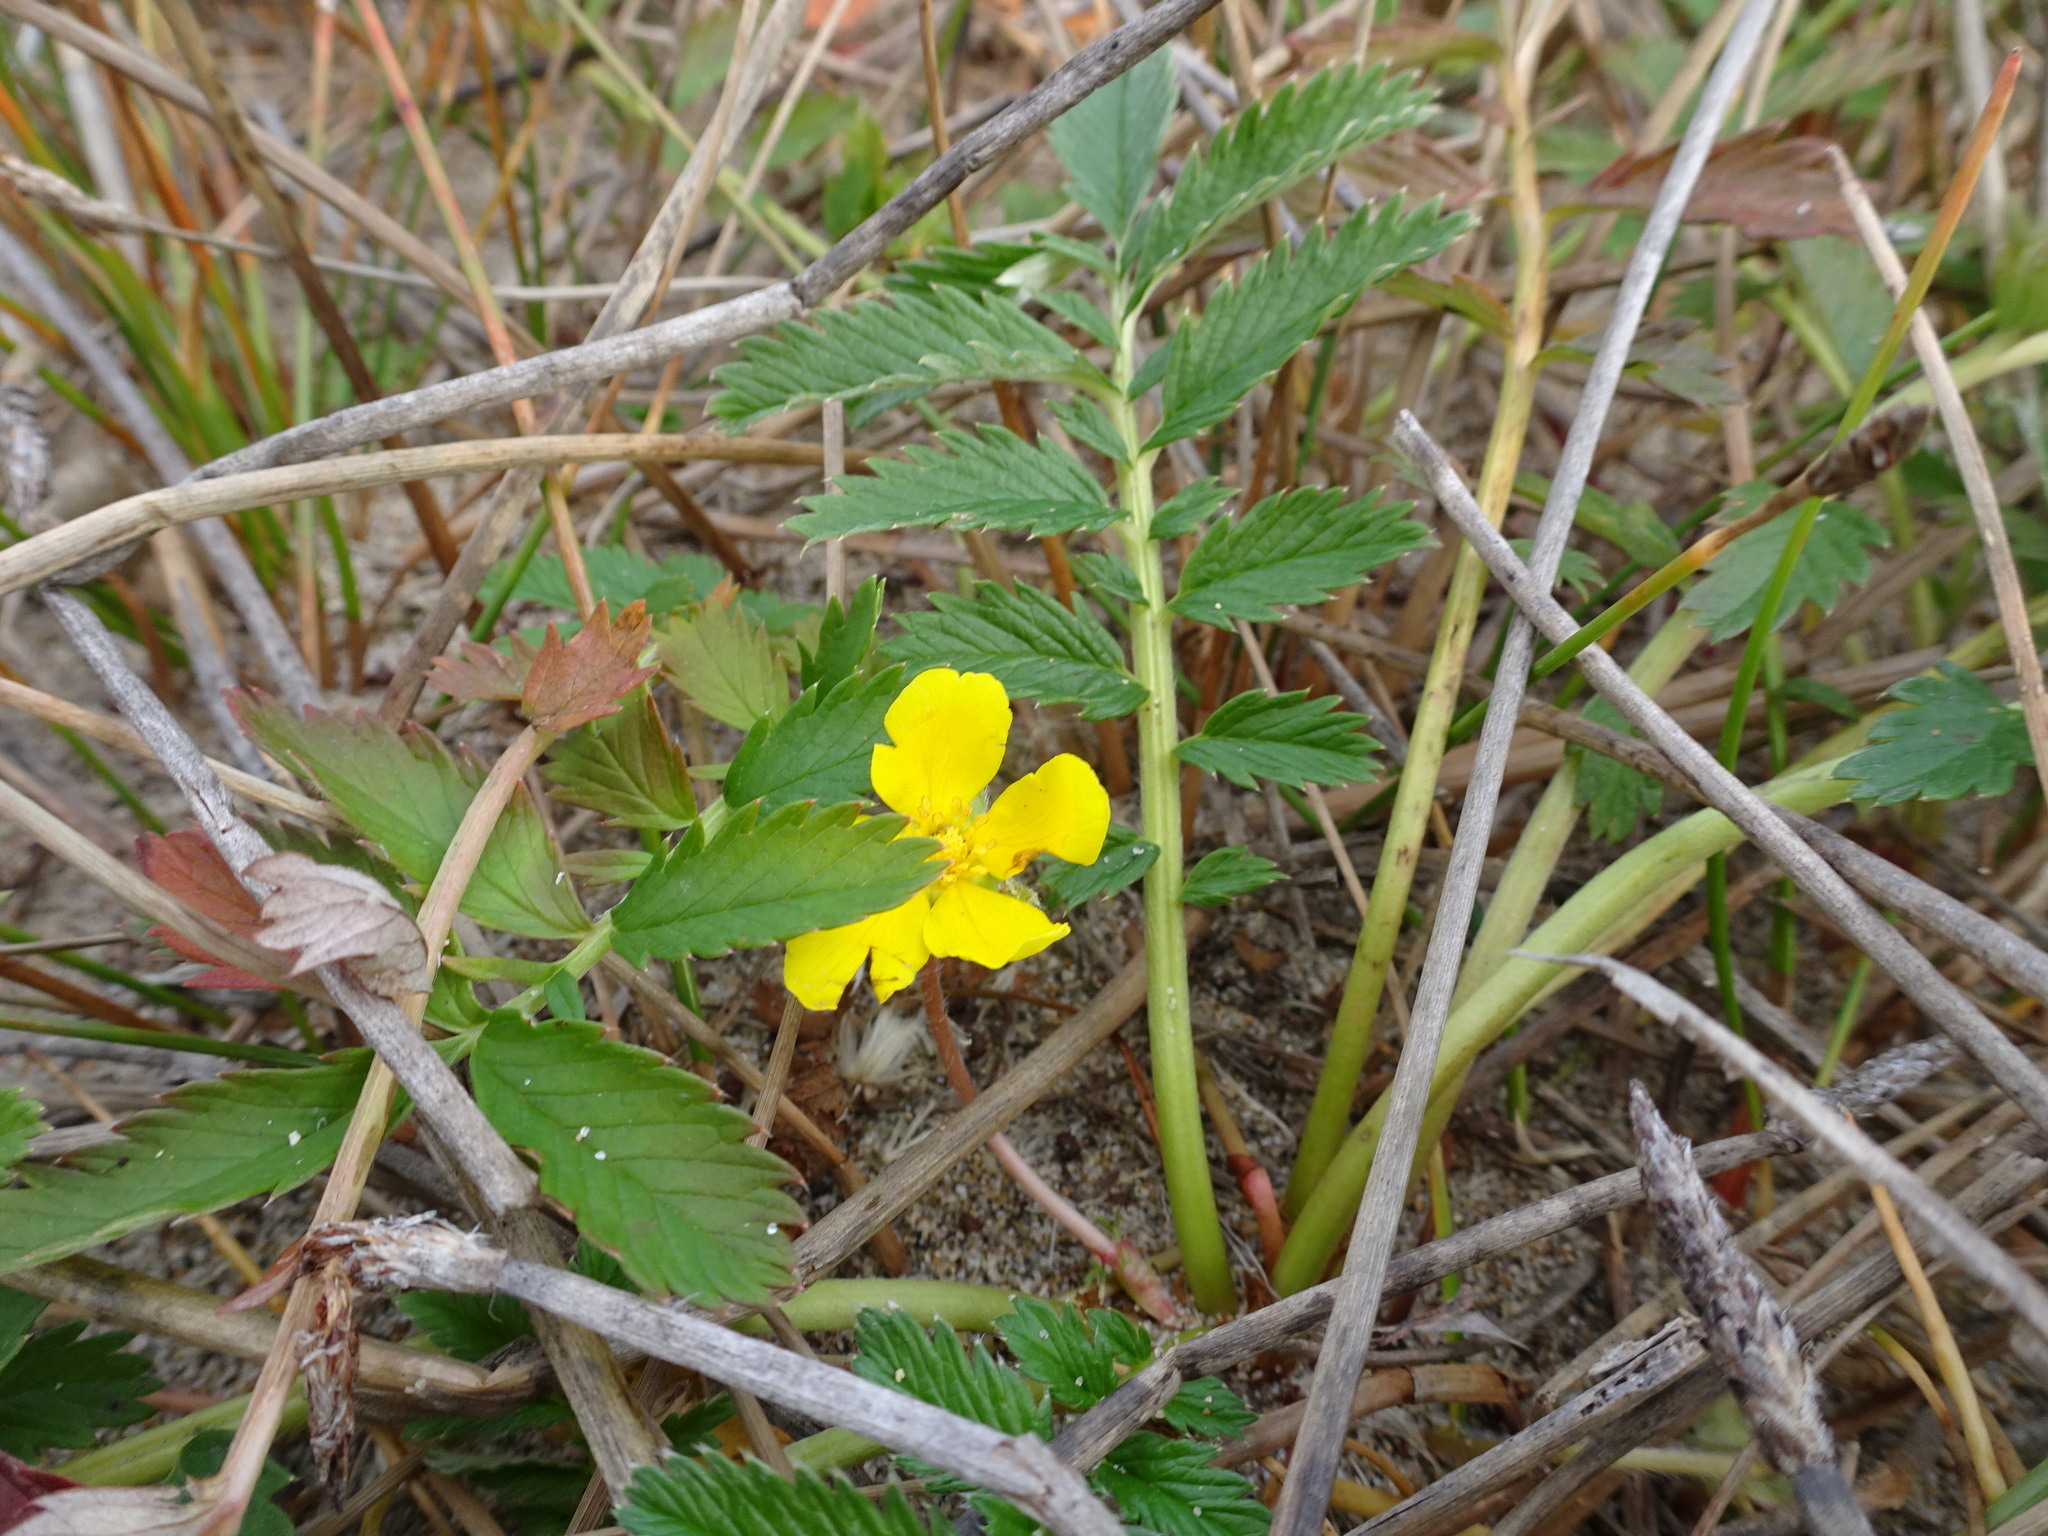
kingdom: Plantae
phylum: Tracheophyta
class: Magnoliopsida
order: Rosales
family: Rosaceae
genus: Argentina
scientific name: Argentina anserina
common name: Common silverweed
